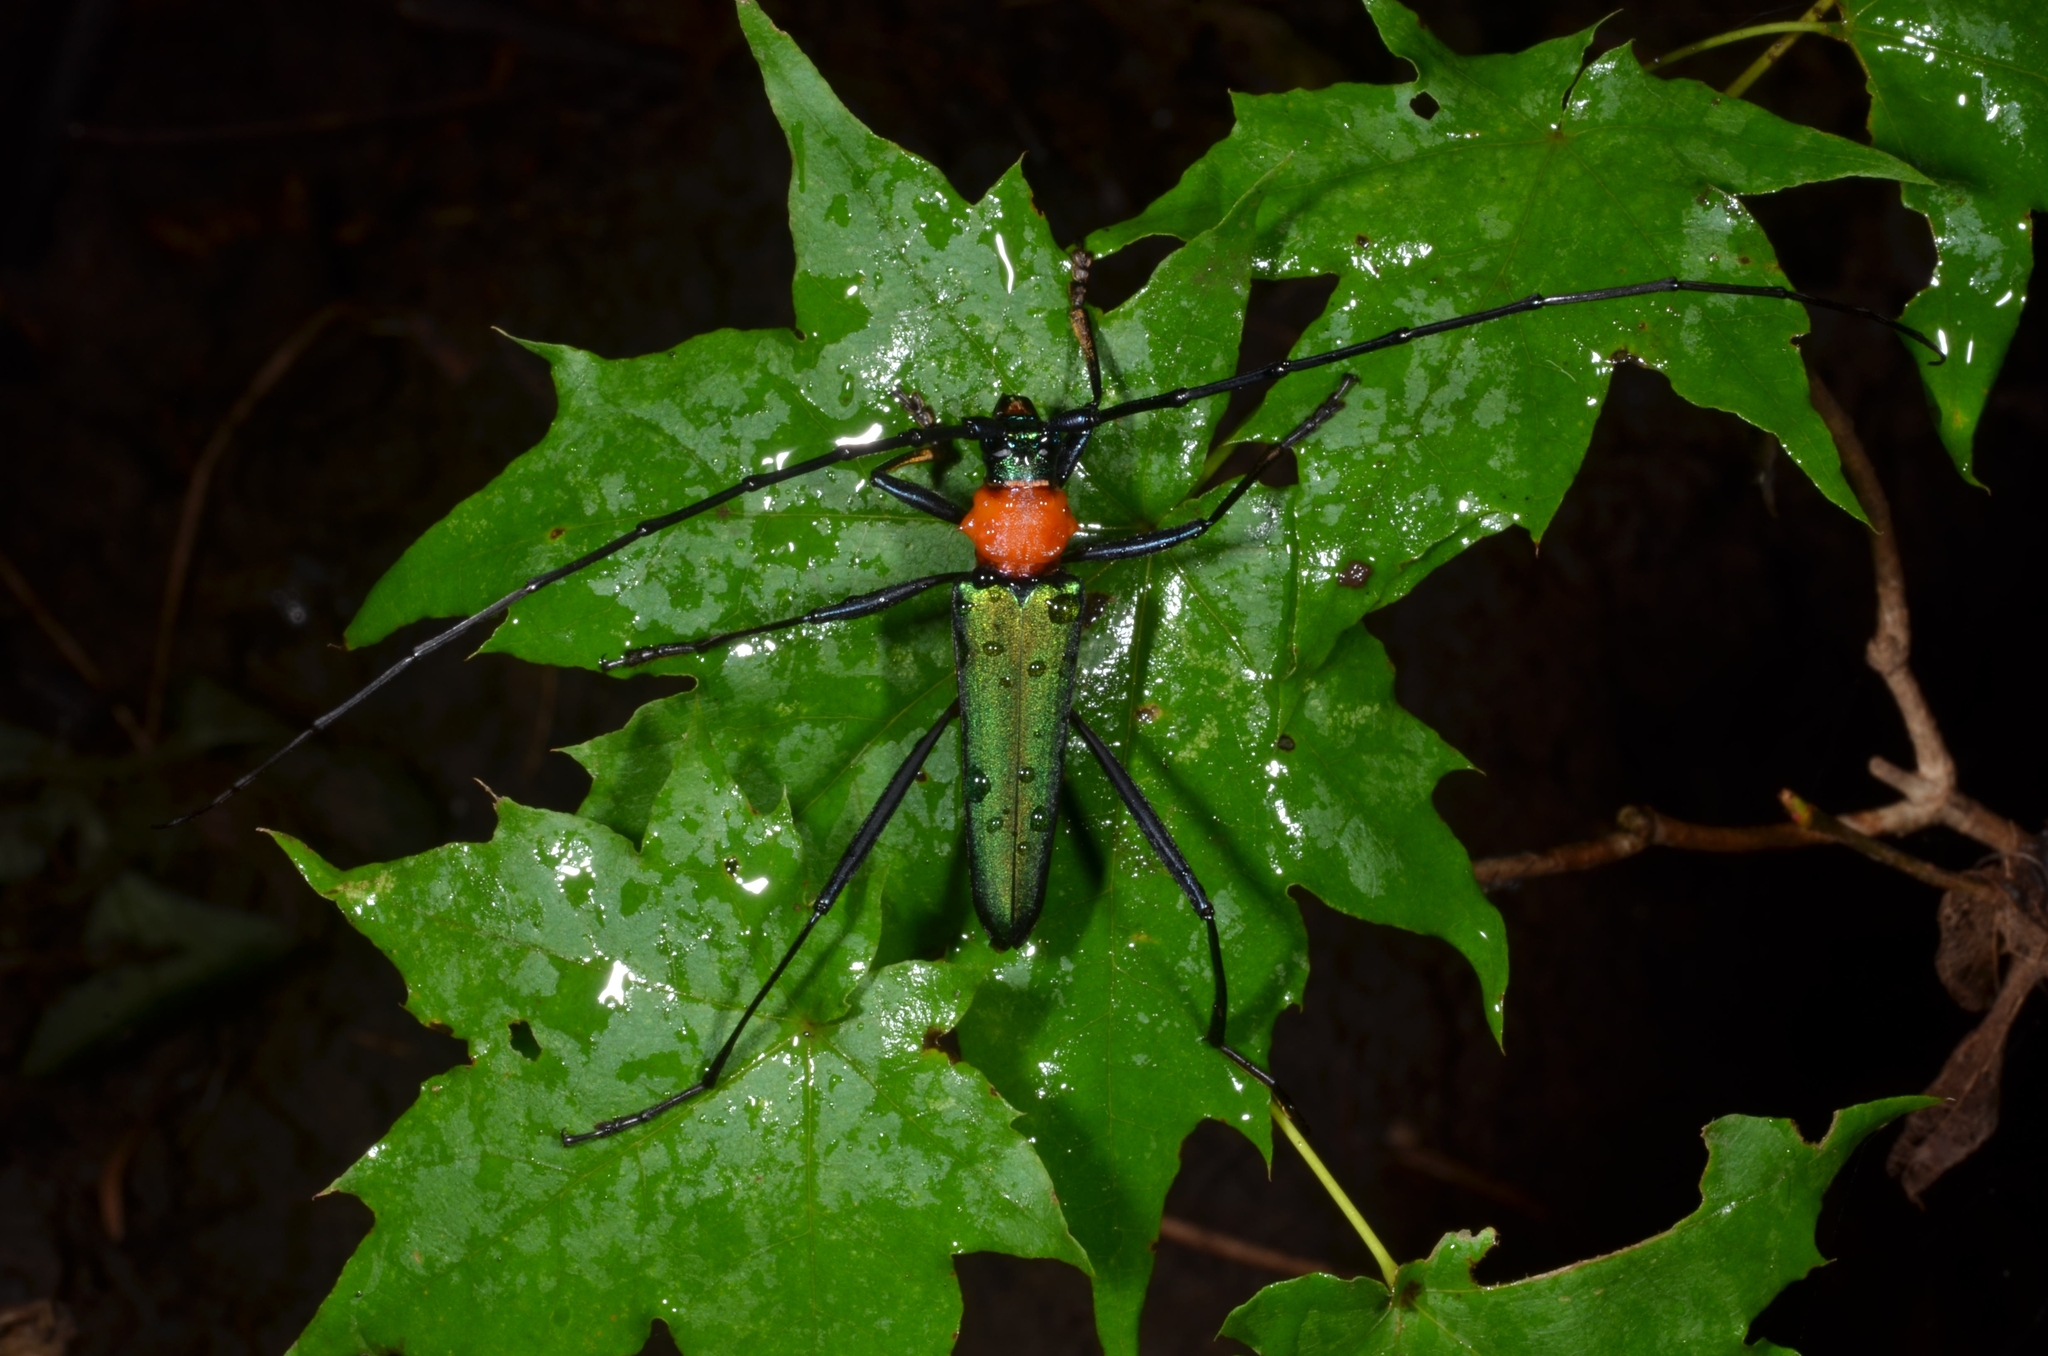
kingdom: Animalia
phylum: Arthropoda
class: Insecta
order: Coleoptera
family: Cerambycidae
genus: Chloridolum
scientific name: Chloridolum sieversi
